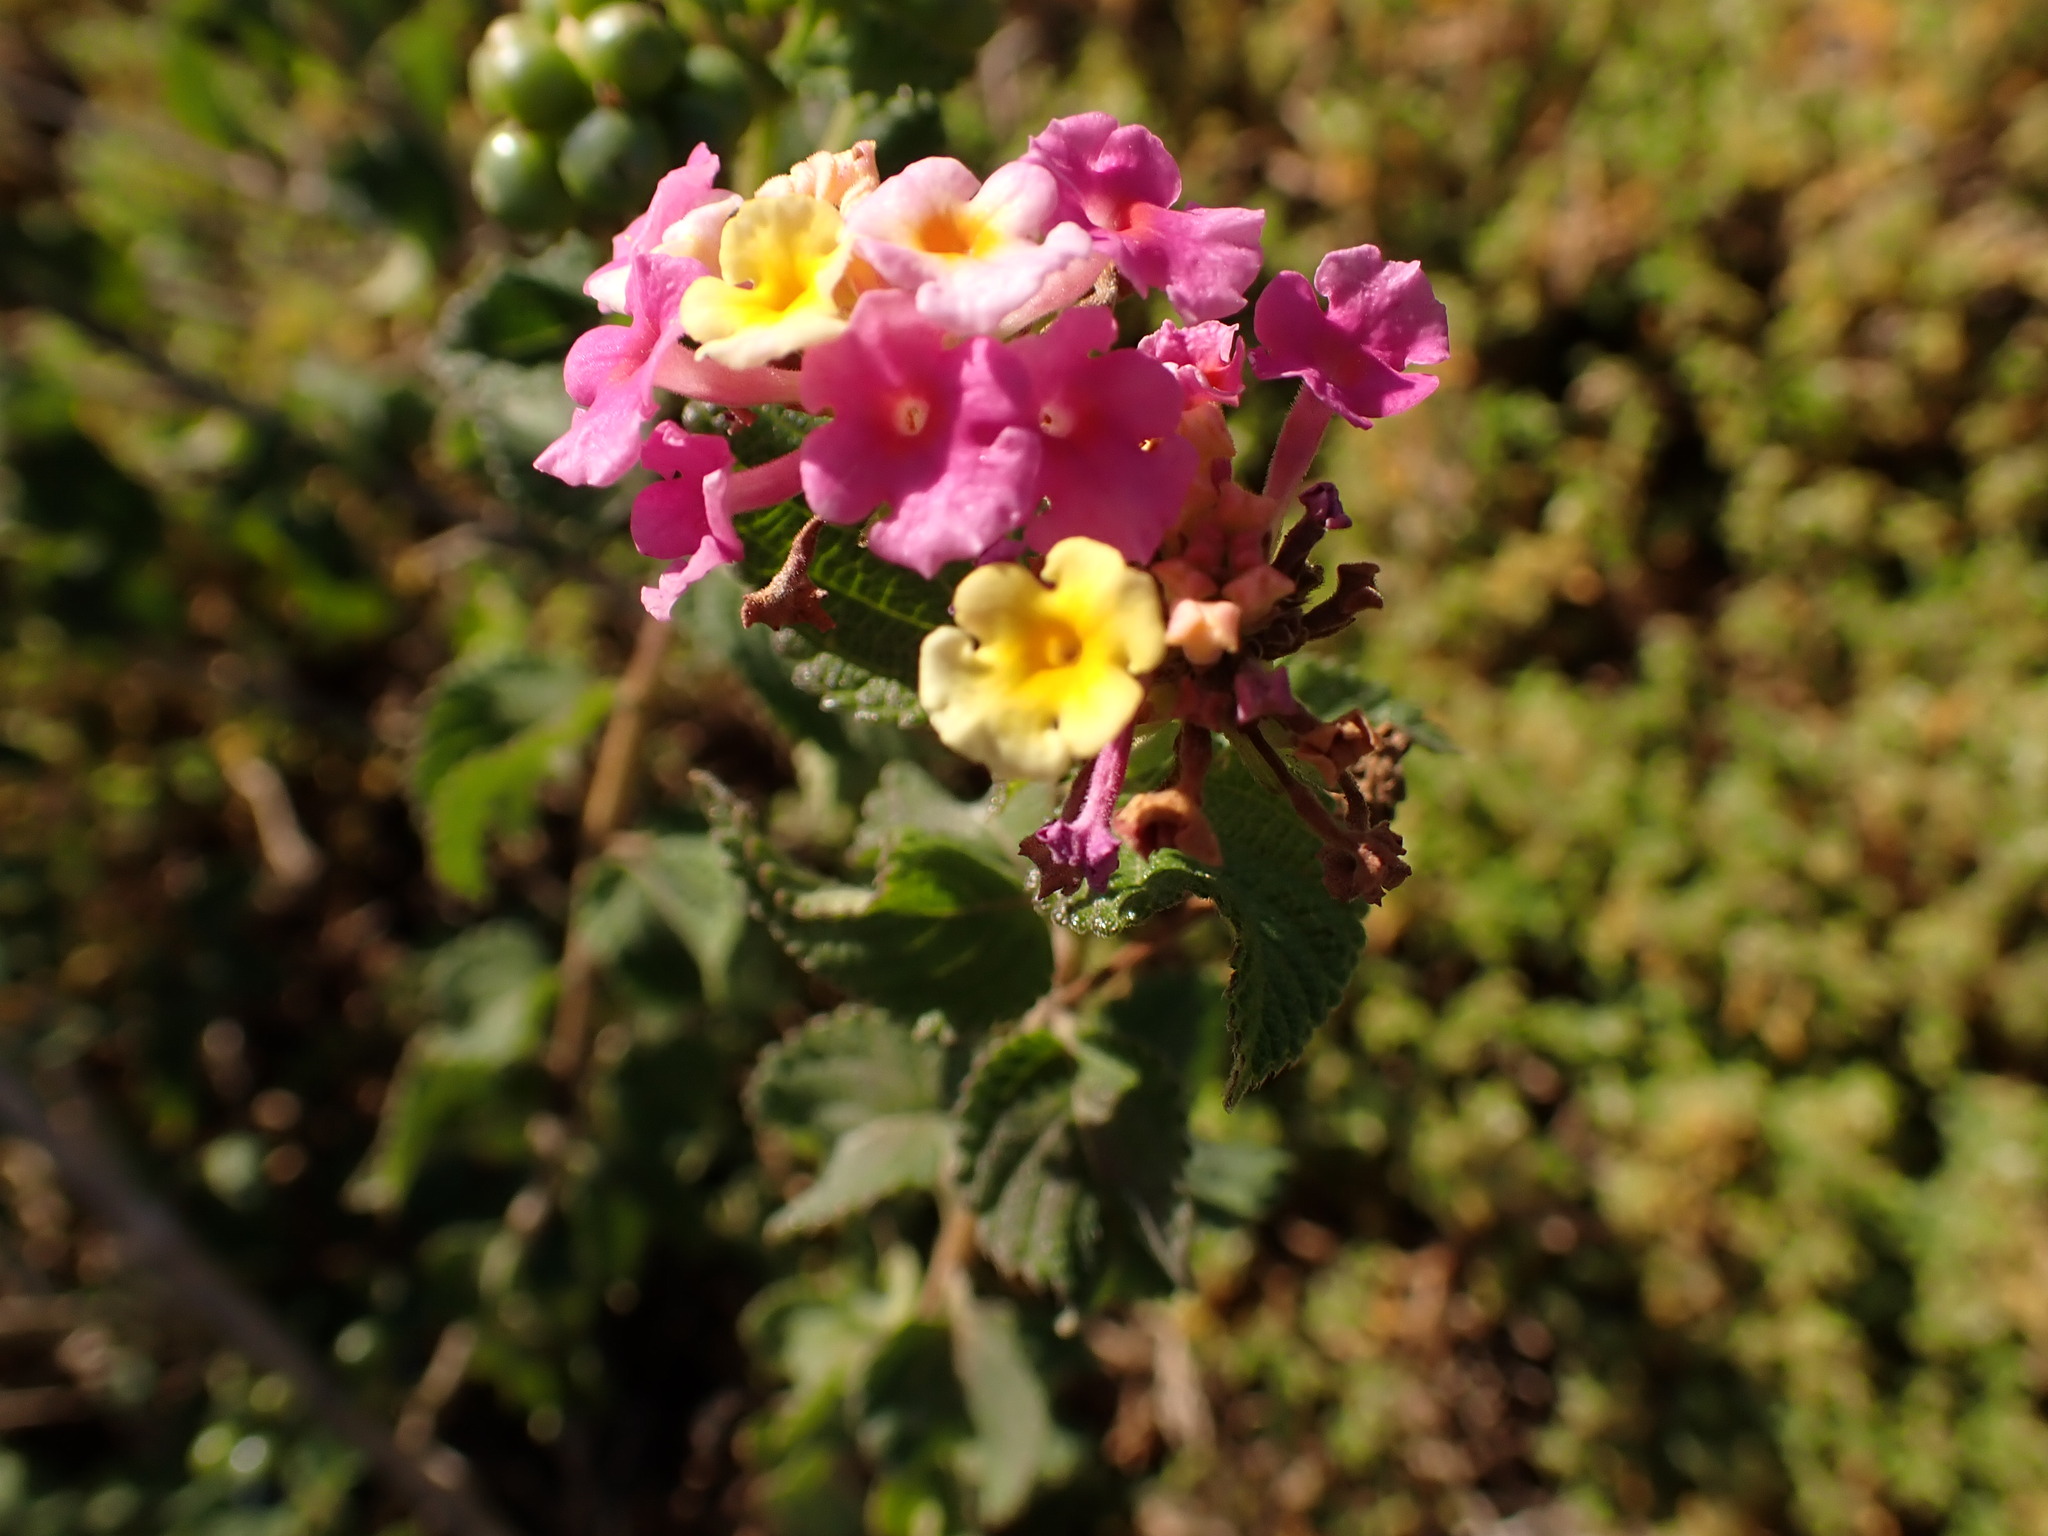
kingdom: Plantae
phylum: Tracheophyta
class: Magnoliopsida
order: Lamiales
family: Verbenaceae
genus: Lantana
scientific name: Lantana camara
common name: Lantana
